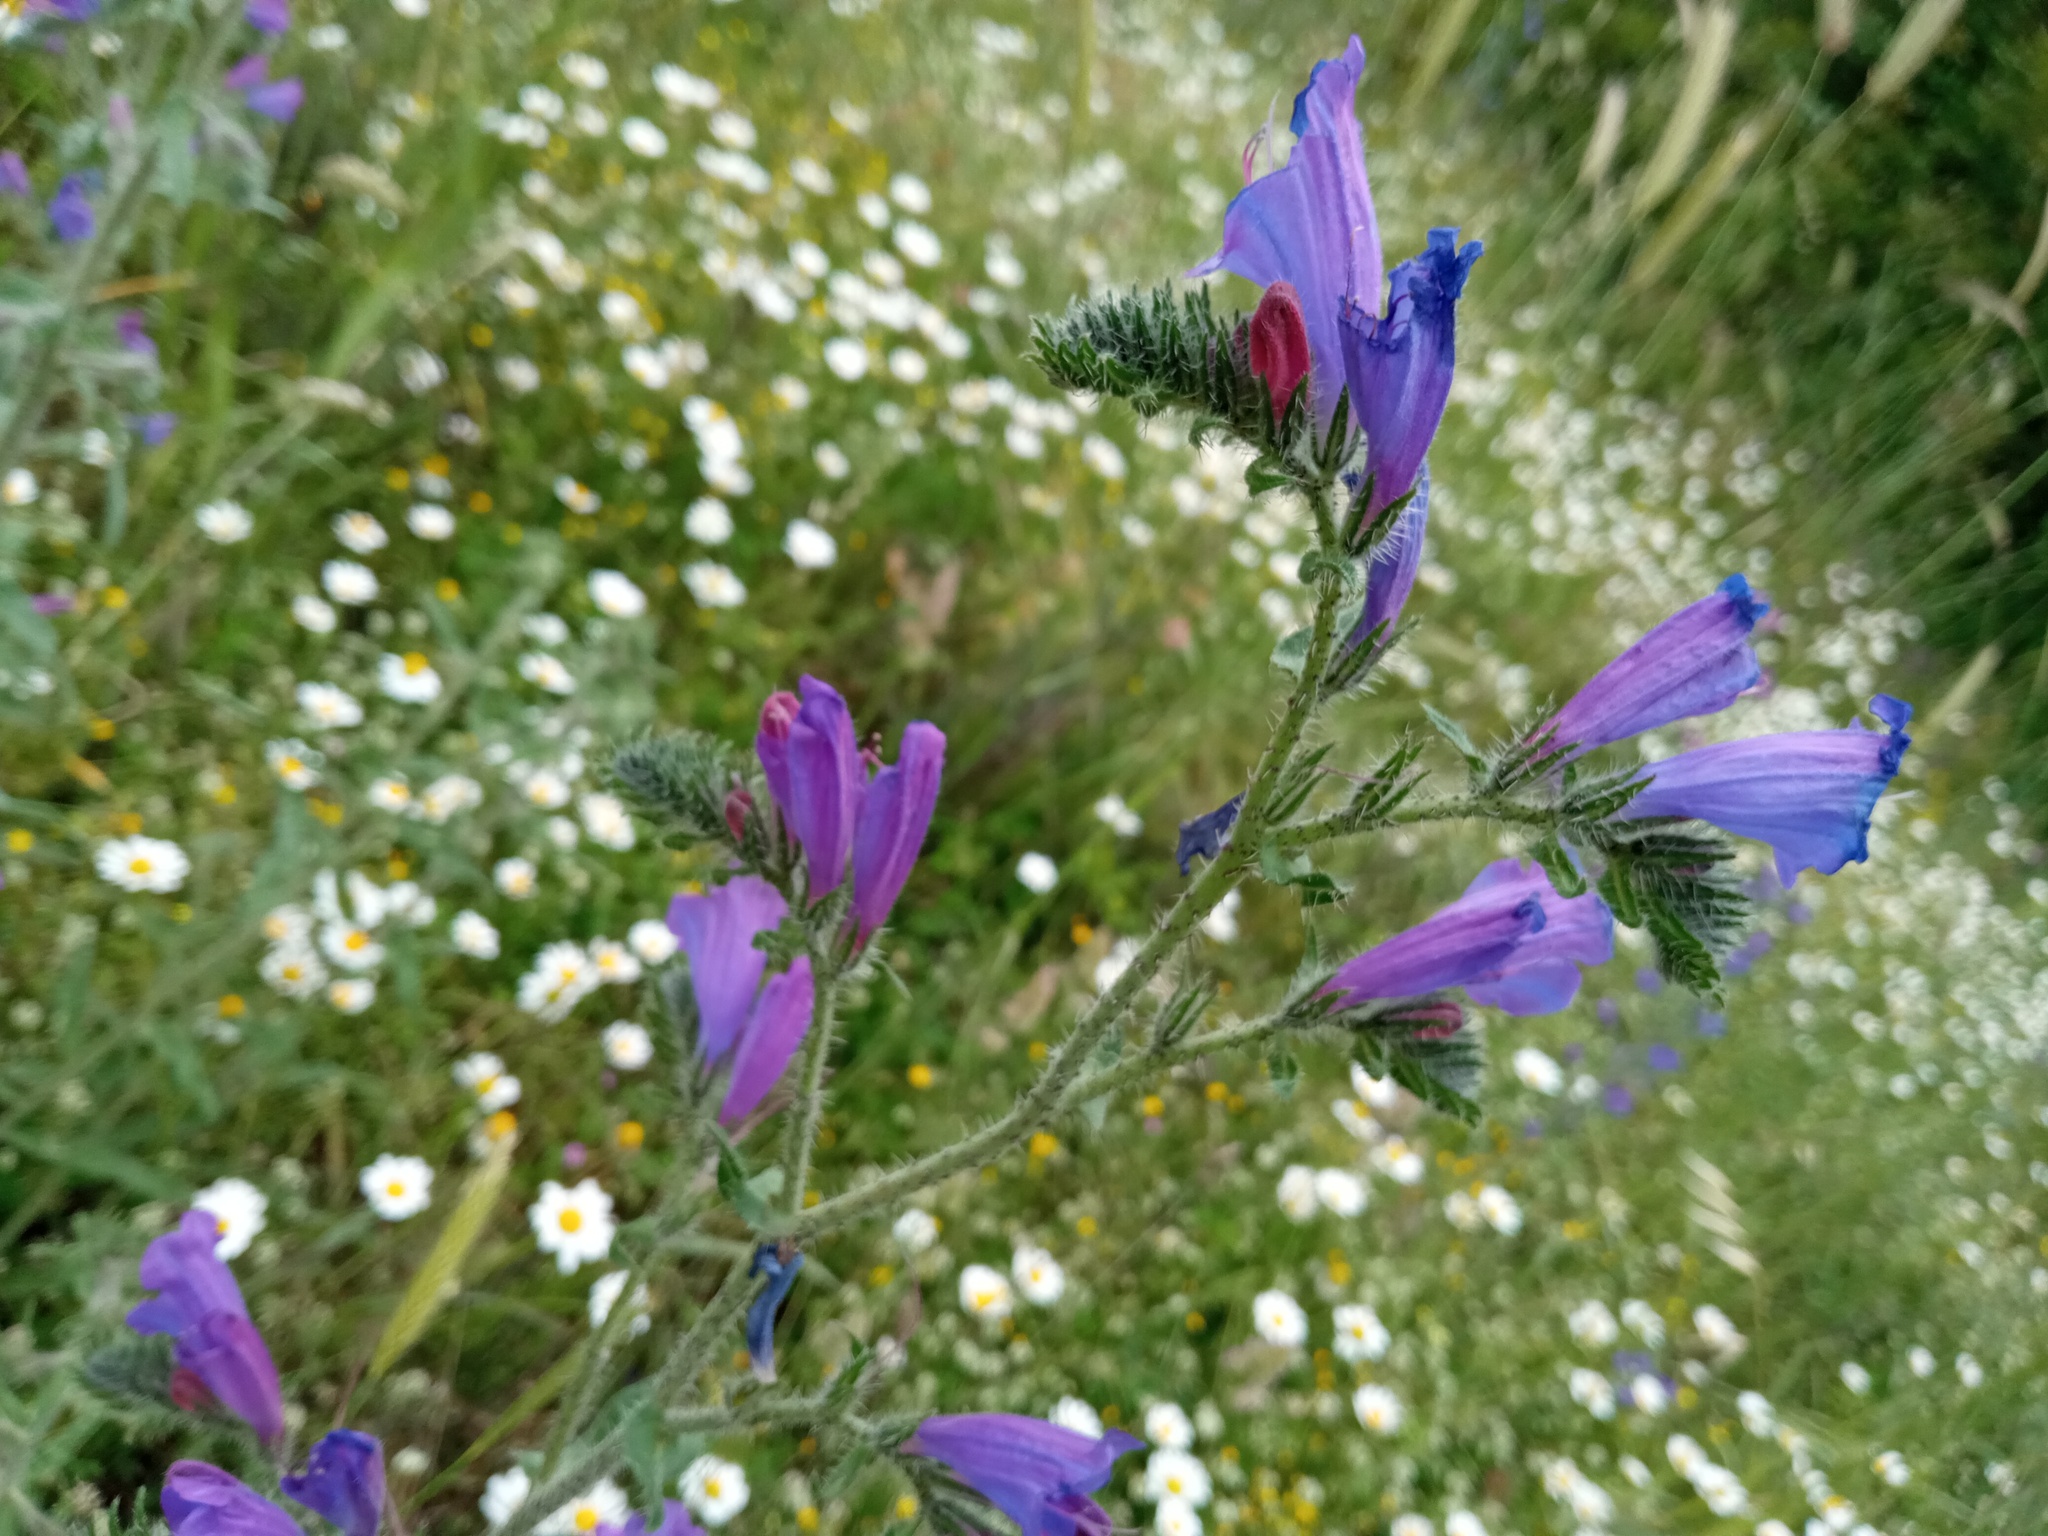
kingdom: Plantae
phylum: Tracheophyta
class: Magnoliopsida
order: Boraginales
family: Boraginaceae
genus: Echium
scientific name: Echium vulgare
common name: Common viper's bugloss
